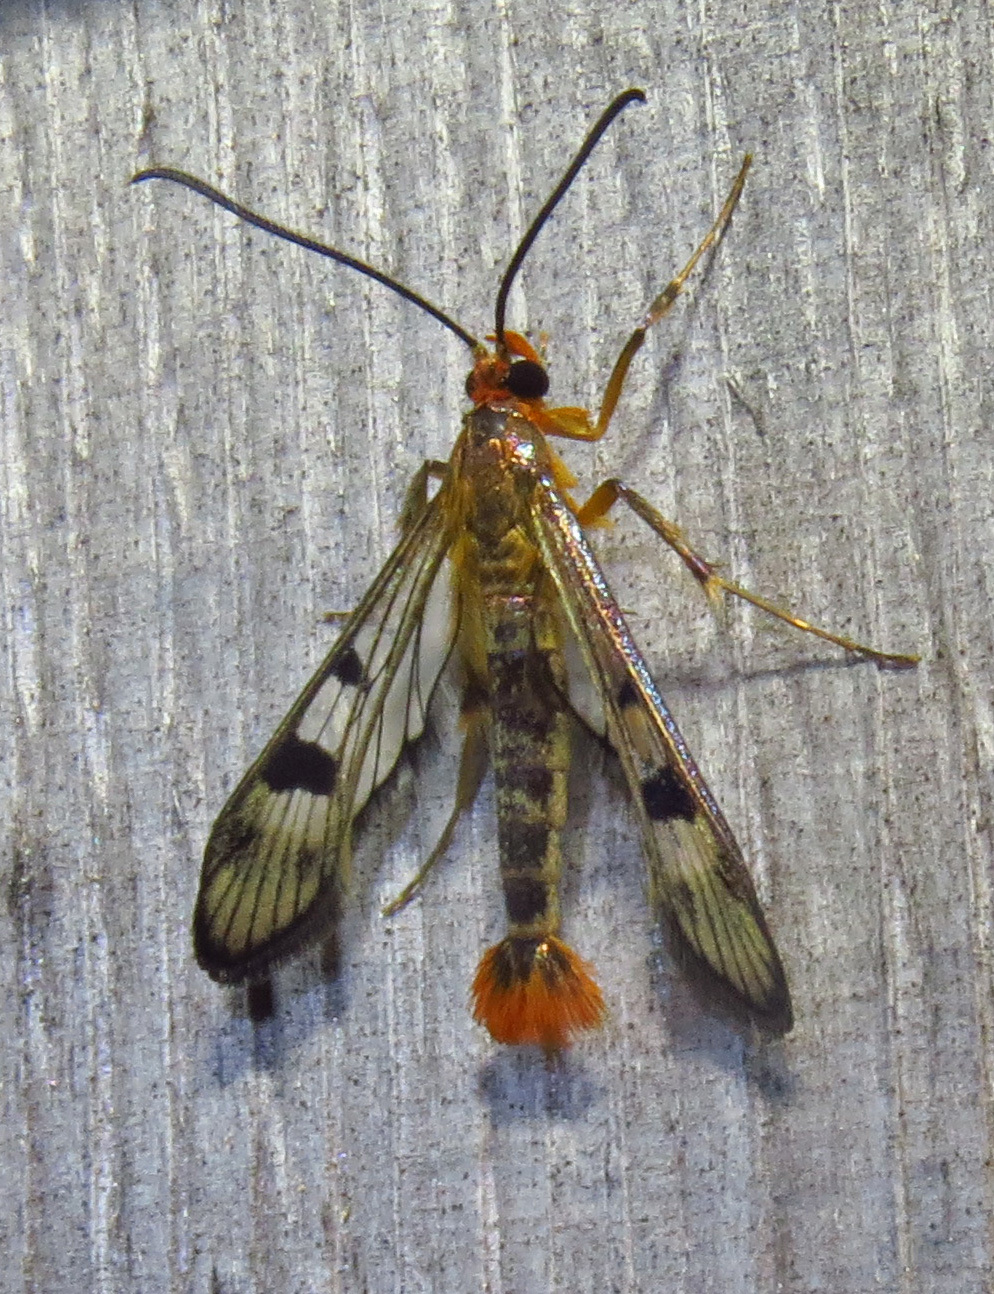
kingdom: Animalia
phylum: Arthropoda
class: Insecta
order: Lepidoptera
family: Sesiidae
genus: Synanthedon
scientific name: Synanthedon acerni
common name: Maple callus borer moth
